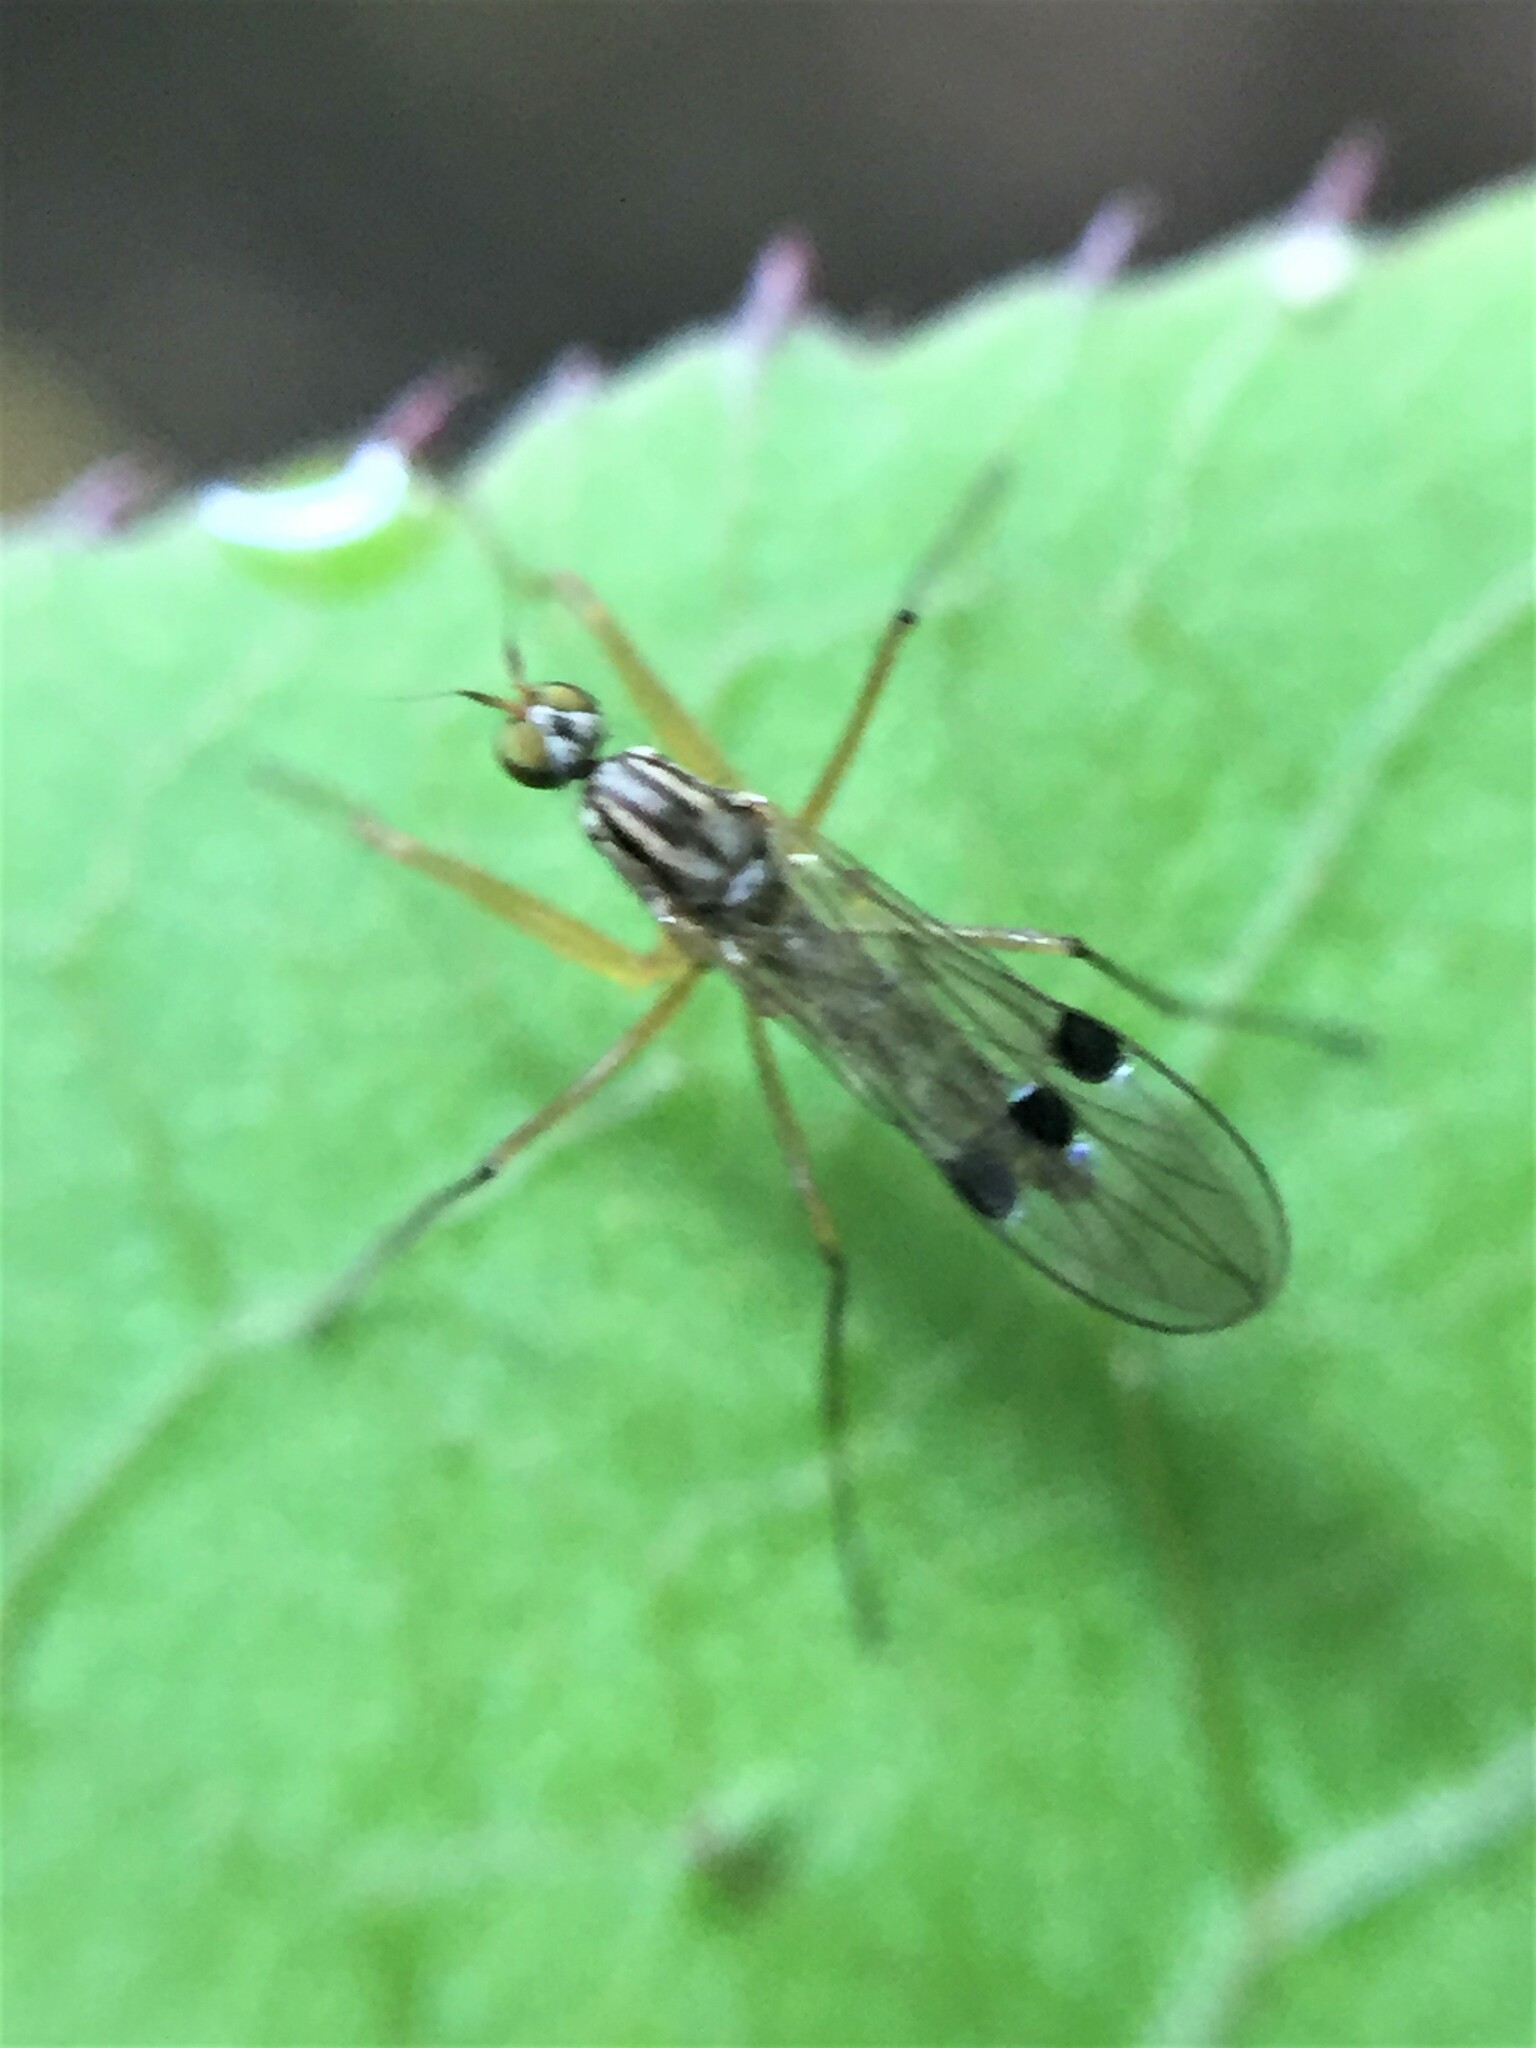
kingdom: Animalia
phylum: Arthropoda
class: Insecta
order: Diptera
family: Empididae
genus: Chelipoda
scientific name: Chelipoda mirabilis
